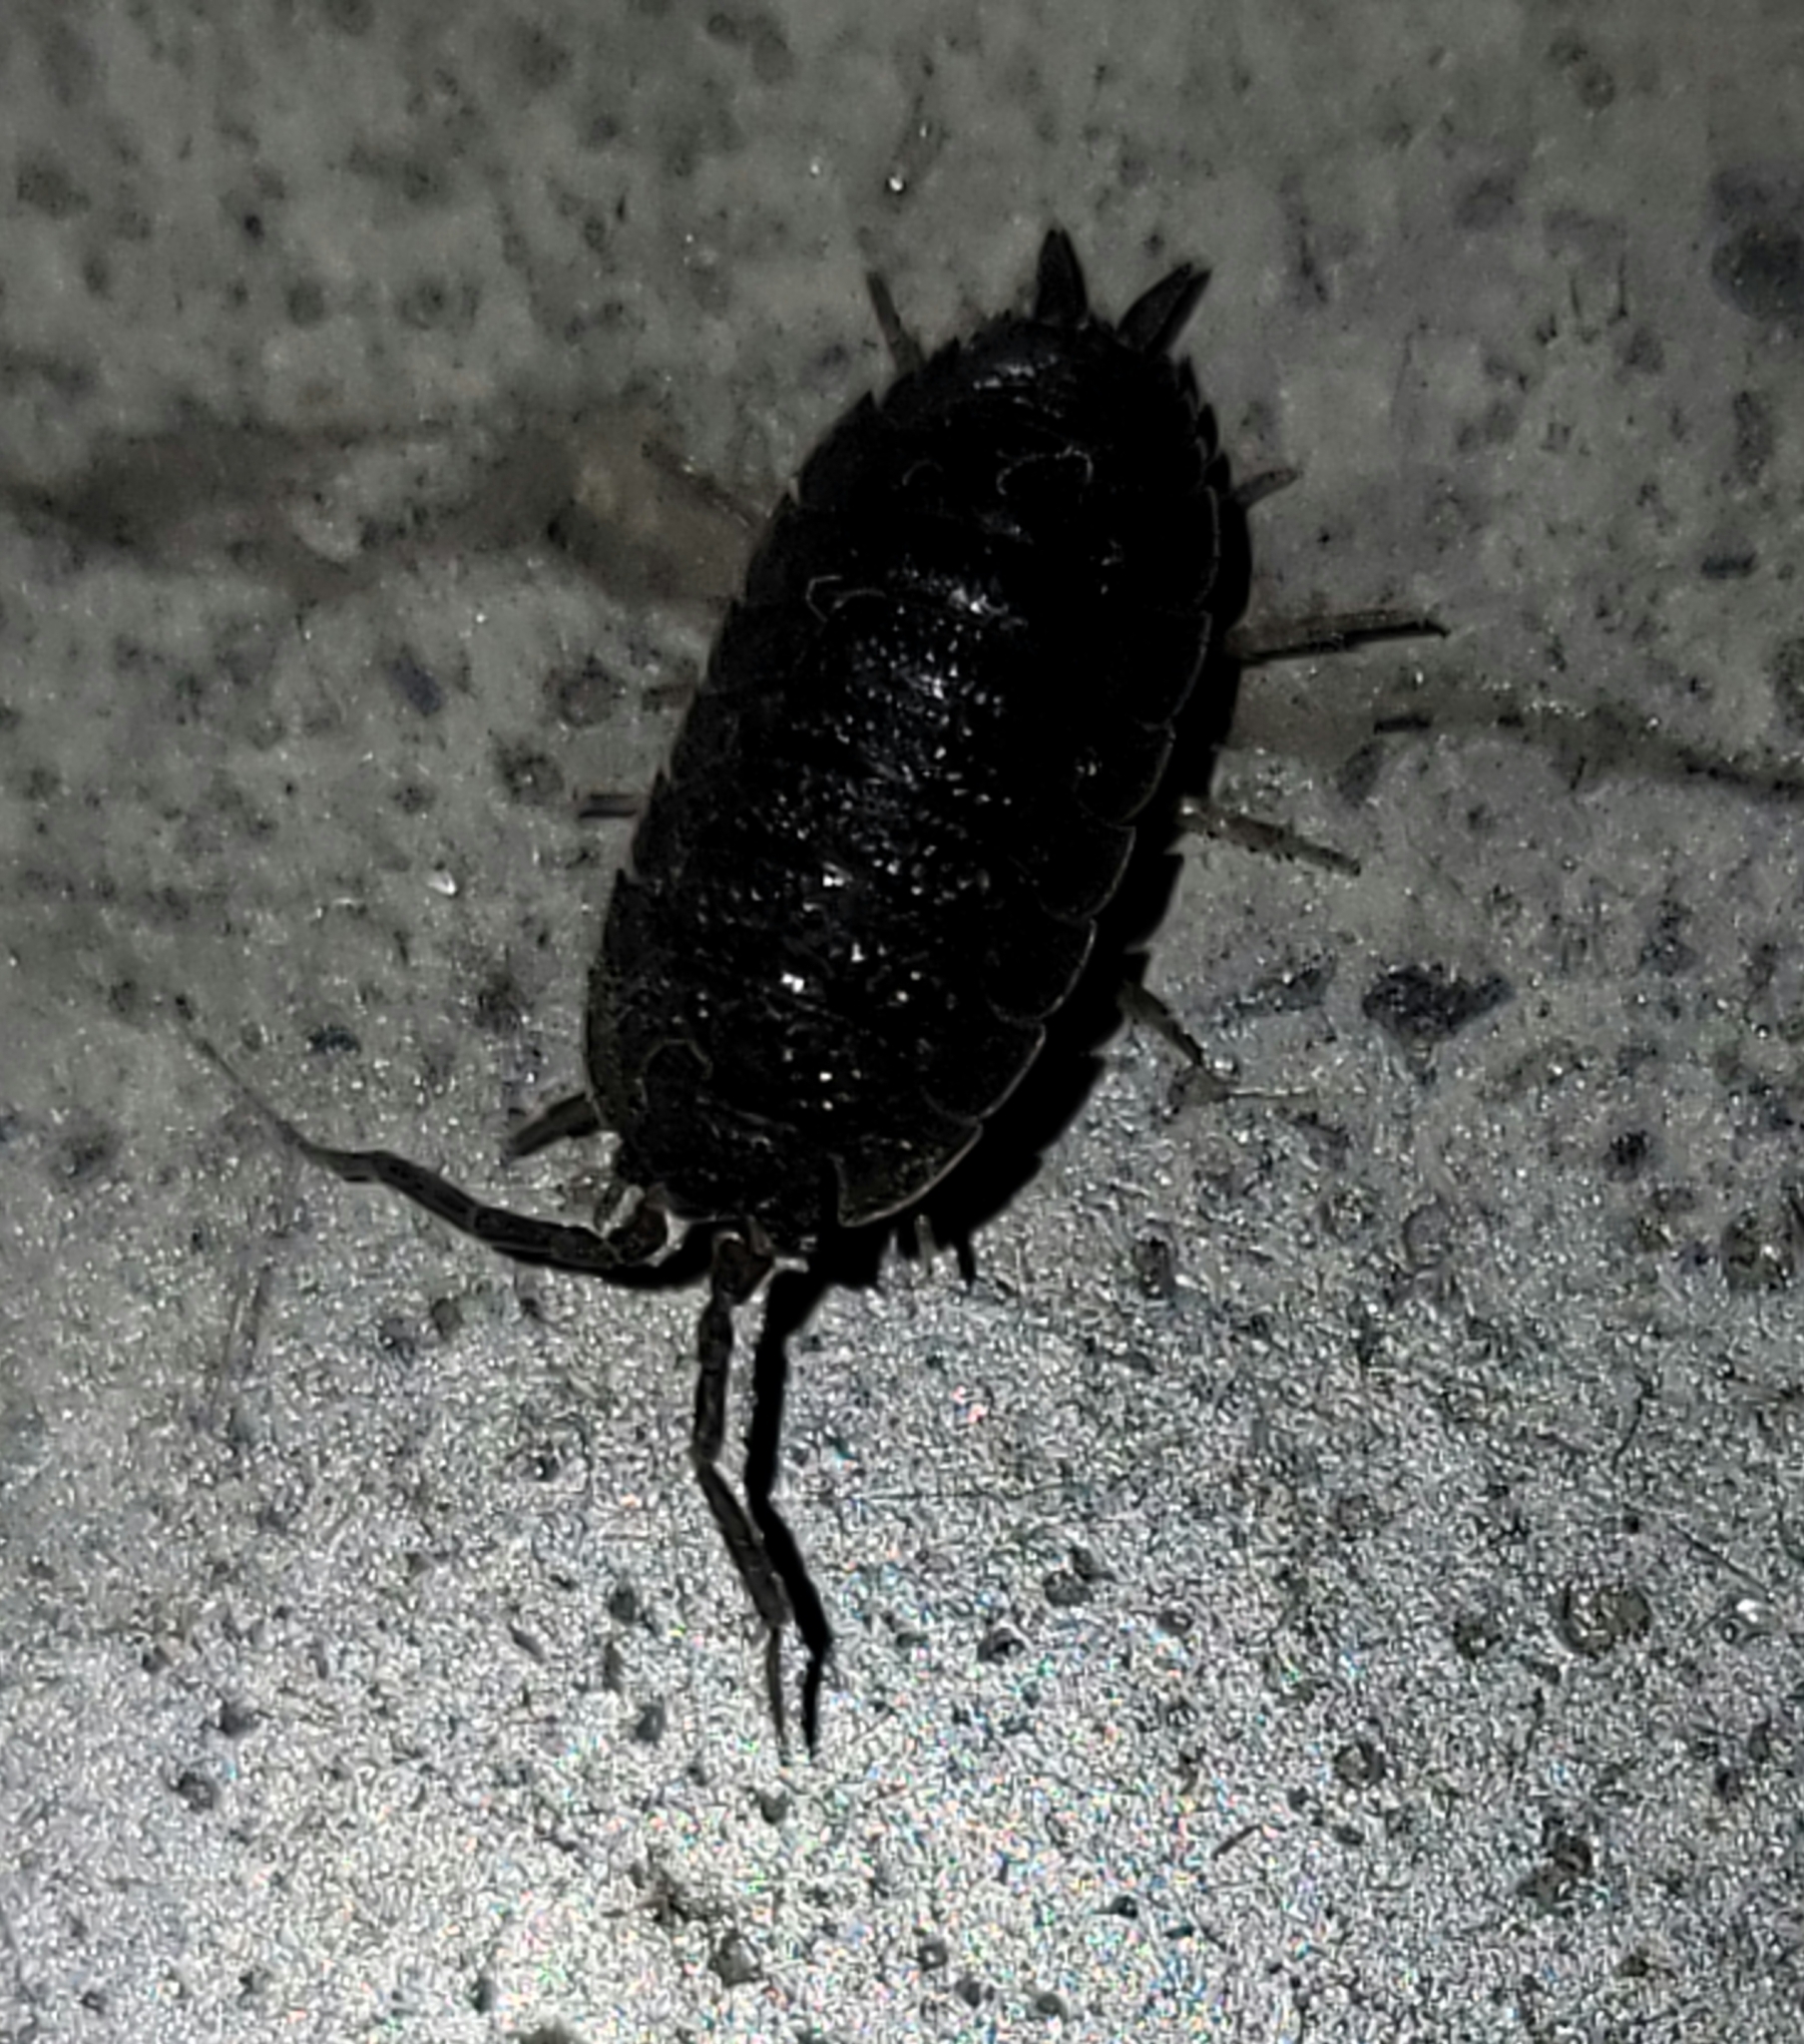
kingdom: Animalia
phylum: Arthropoda
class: Malacostraca
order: Isopoda
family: Porcellionidae
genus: Porcellio
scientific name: Porcellio scaber
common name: Common rough woodlouse
